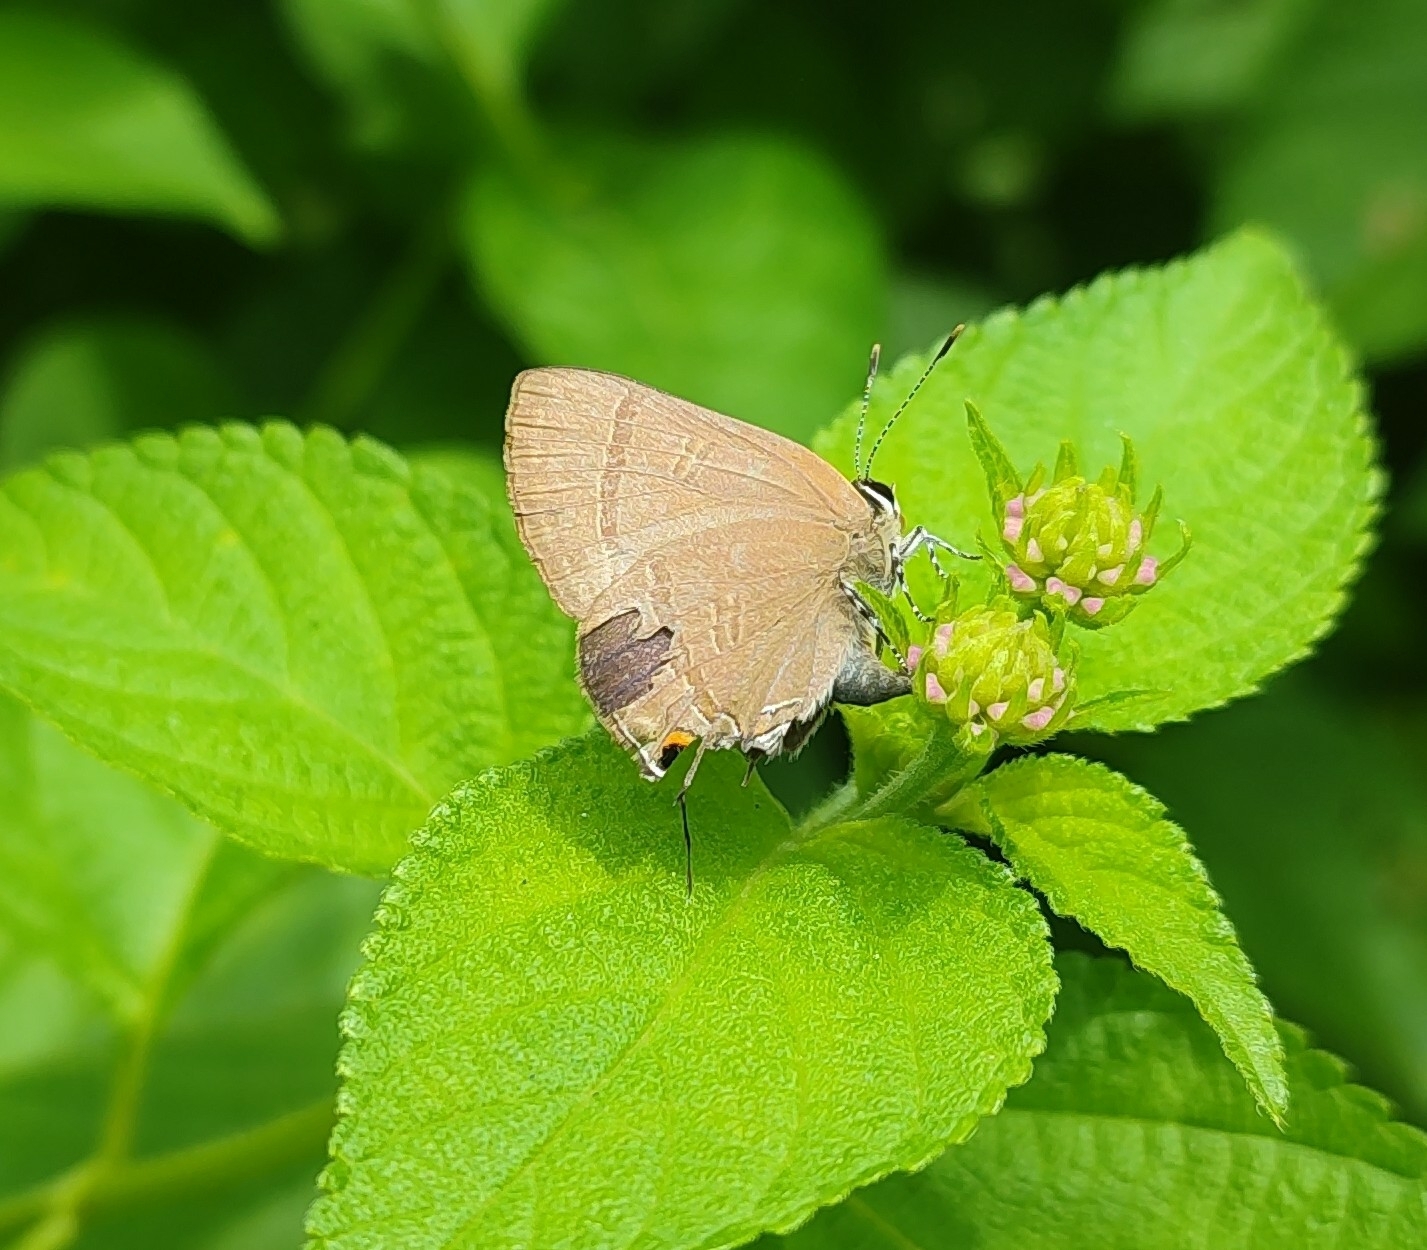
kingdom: Animalia
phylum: Arthropoda
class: Insecta
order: Lepidoptera
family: Lycaenidae
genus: Rapala
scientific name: Rapala manea
